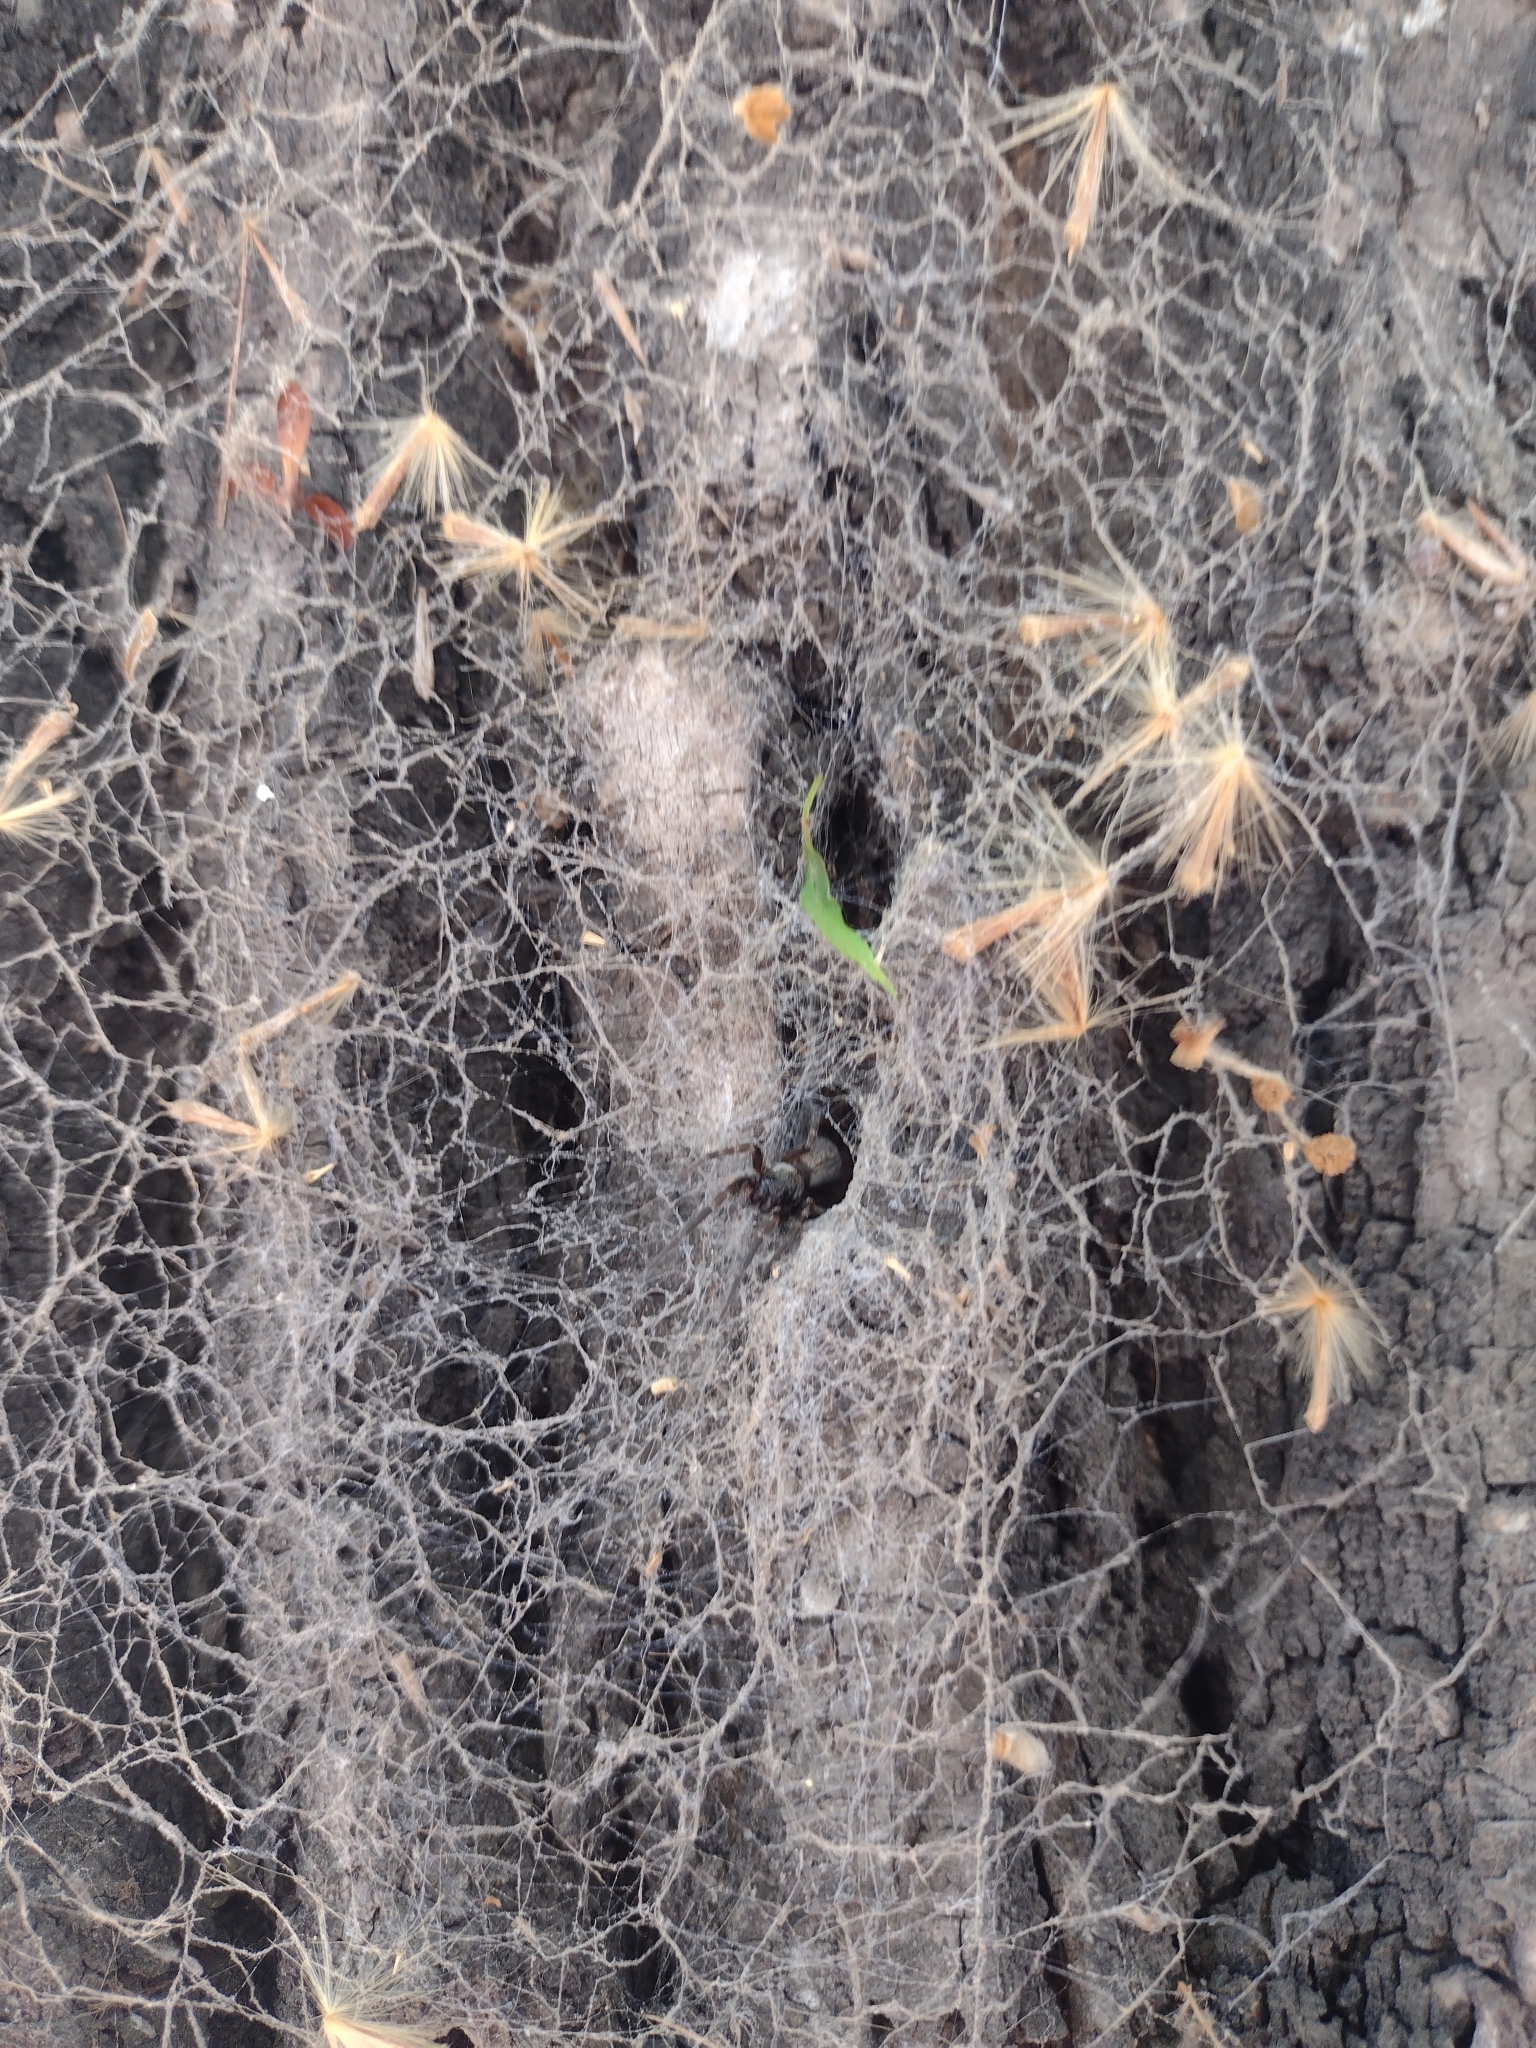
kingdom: Animalia
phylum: Arthropoda
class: Arachnida
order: Araneae
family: Desidae
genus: Badumna
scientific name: Badumna longinqua
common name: Gray house spider
